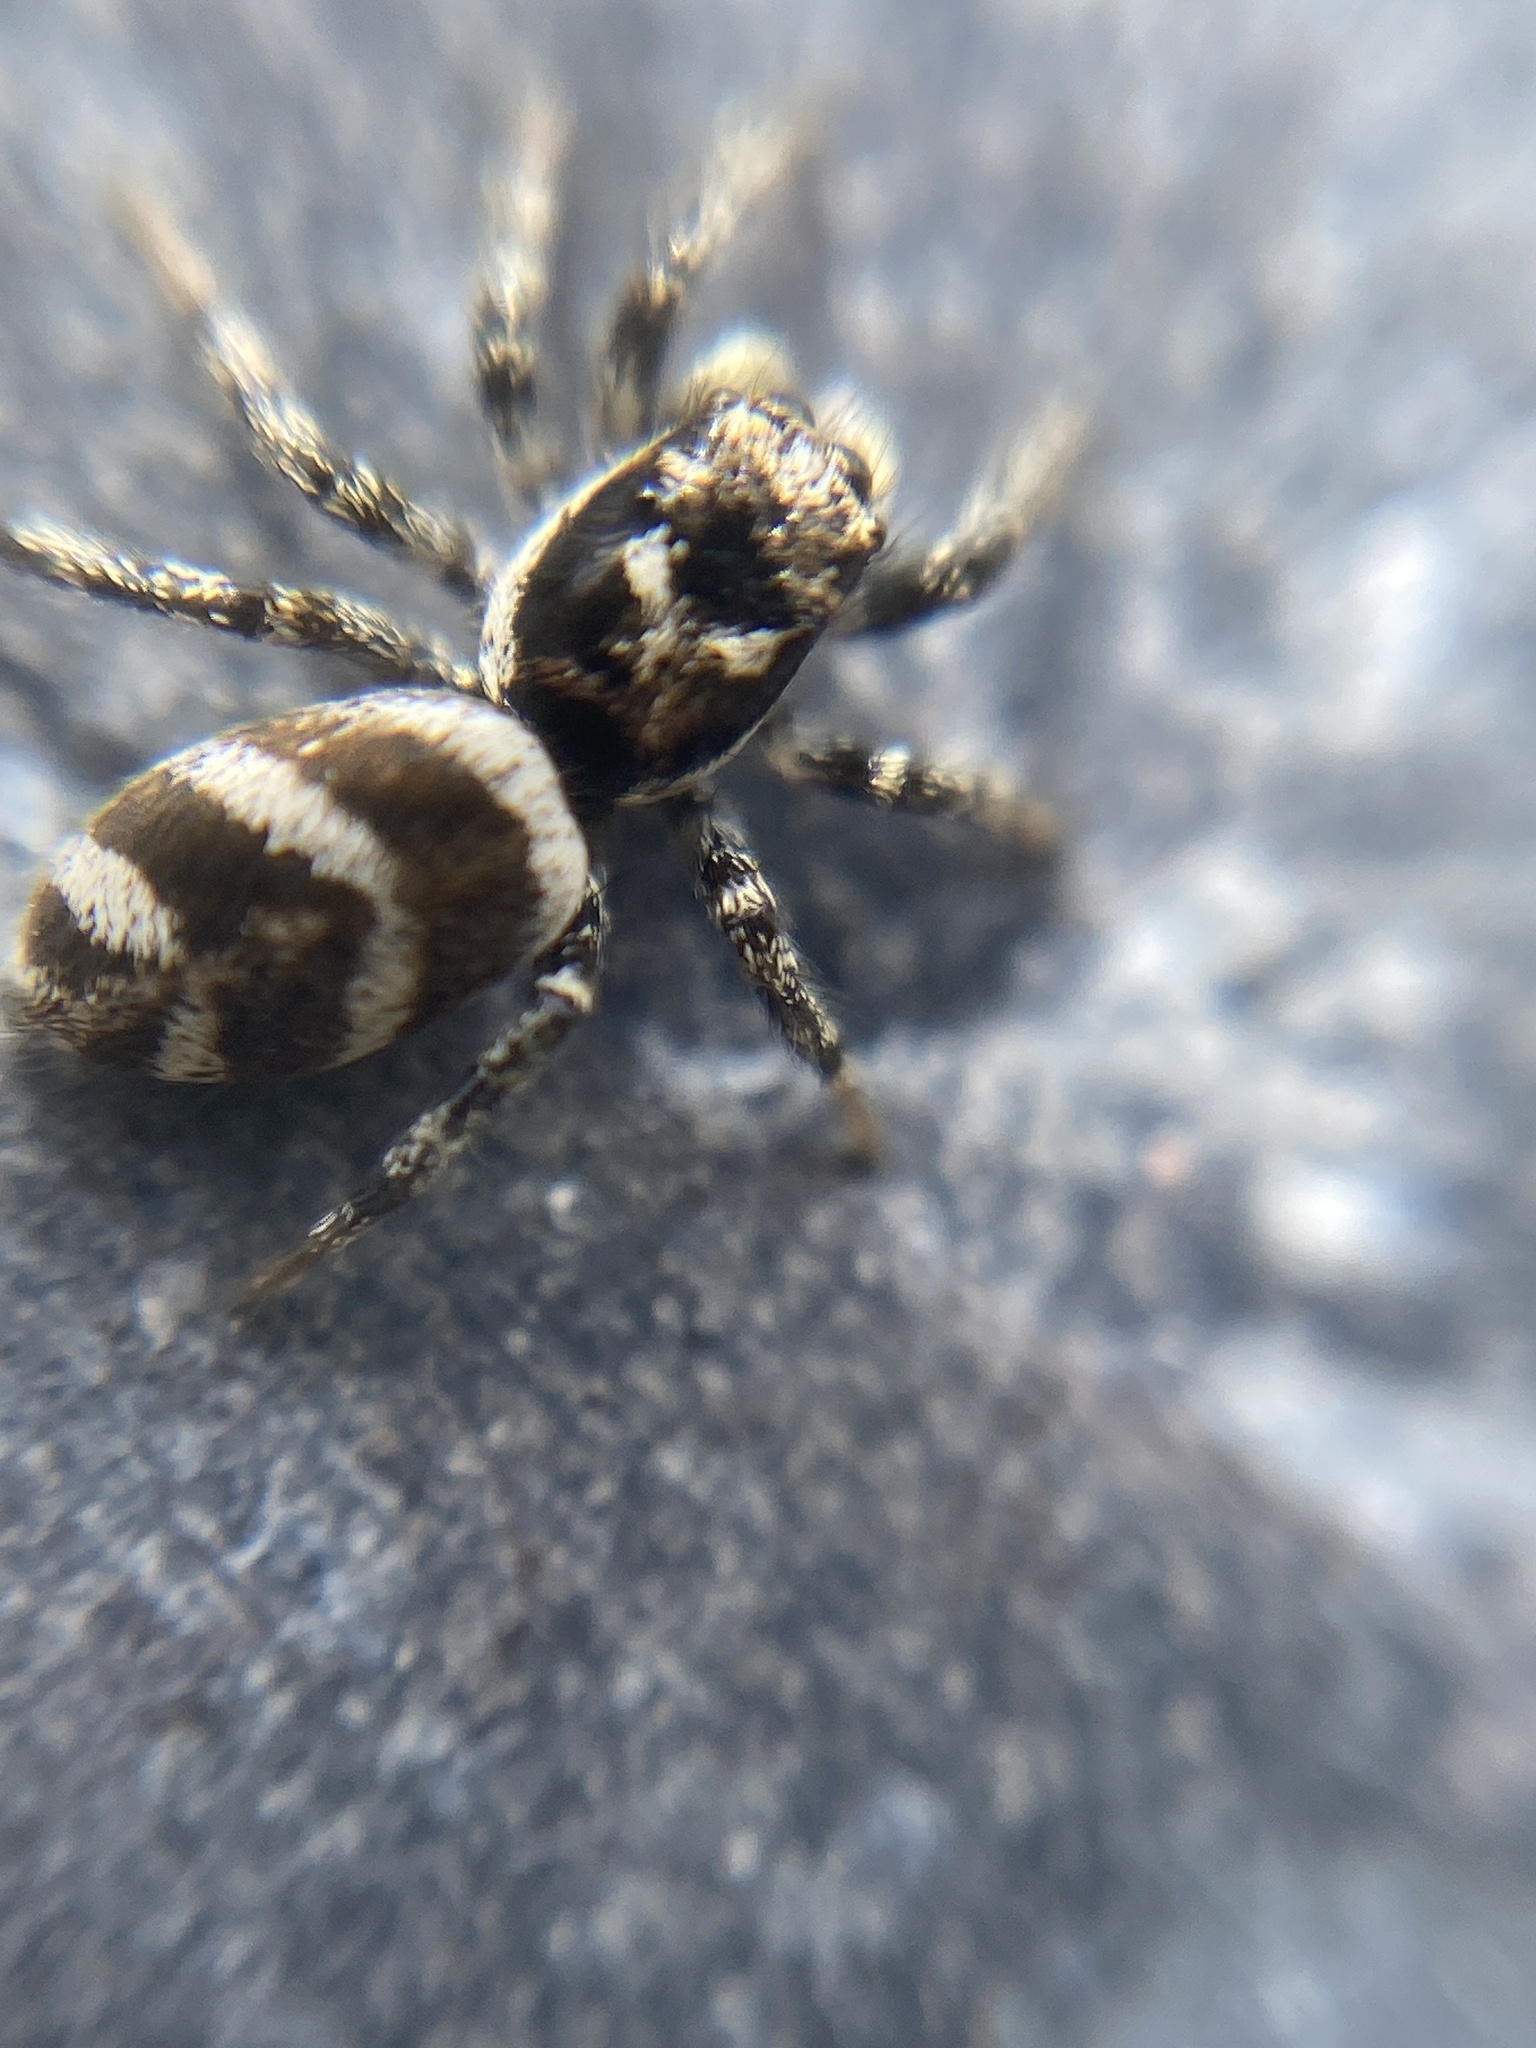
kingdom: Animalia
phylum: Arthropoda
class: Arachnida
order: Araneae
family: Salticidae
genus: Salticus
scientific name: Salticus scenicus
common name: Zebra jumper
